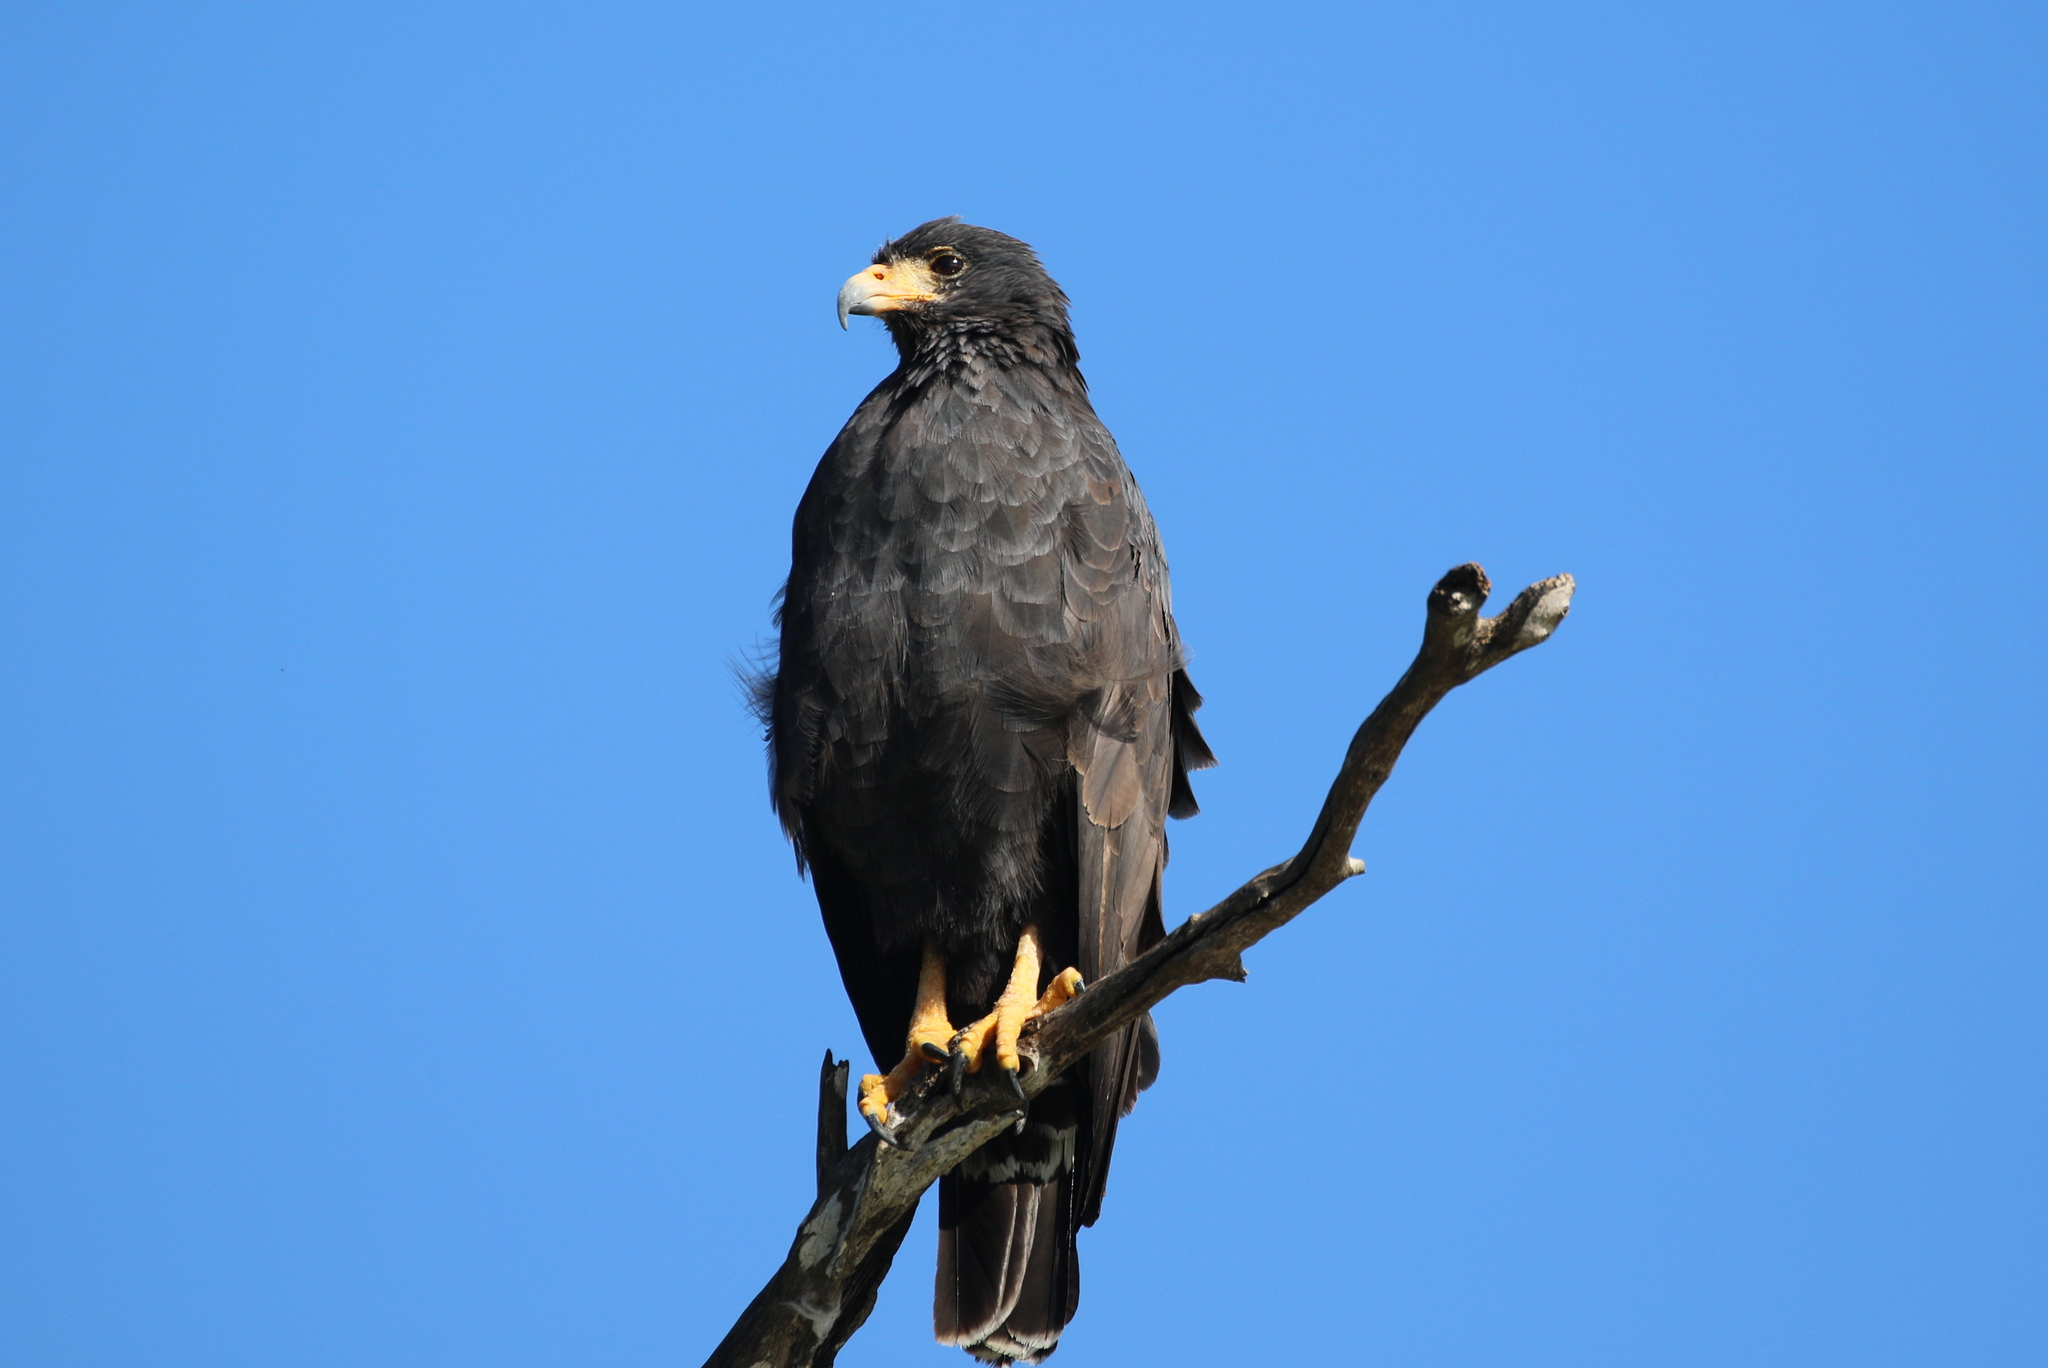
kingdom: Animalia
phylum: Chordata
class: Aves
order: Accipitriformes
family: Accipitridae
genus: Buteogallus
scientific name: Buteogallus anthracinus
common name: Common black hawk
